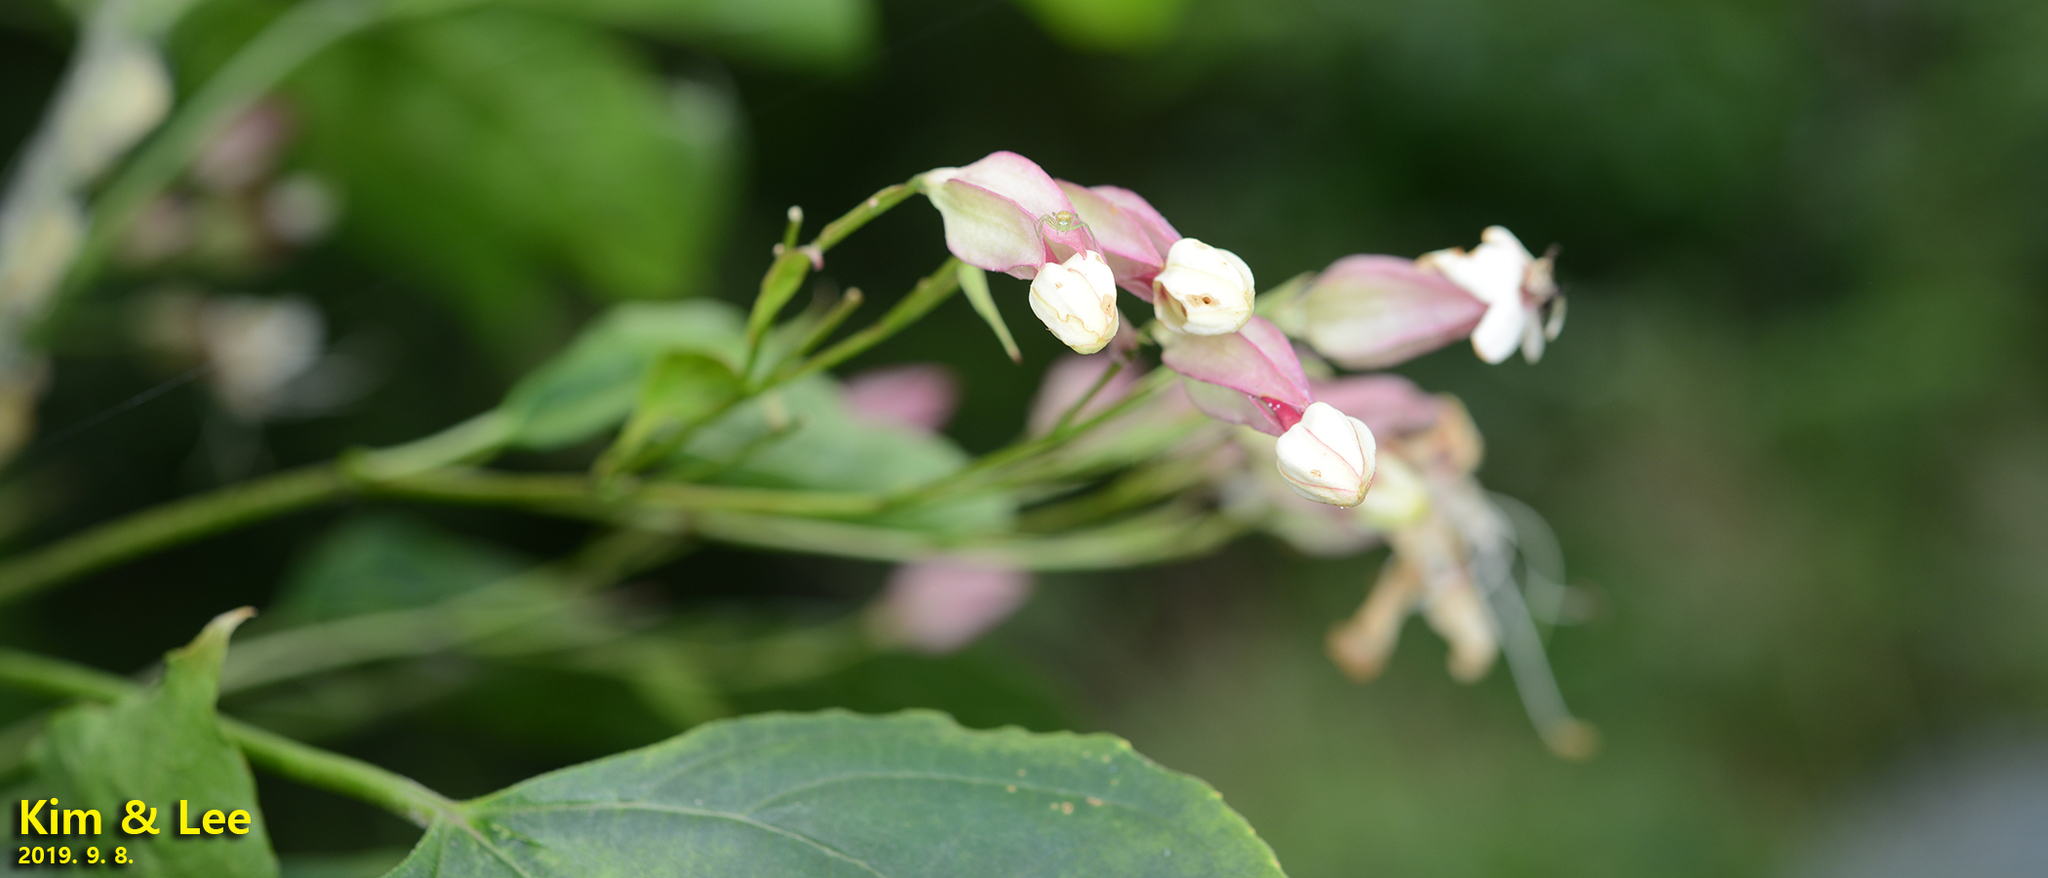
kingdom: Plantae
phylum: Tracheophyta
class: Magnoliopsida
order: Lamiales
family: Lamiaceae
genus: Clerodendrum
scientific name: Clerodendrum trichotomum
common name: Harlequin glorybower
